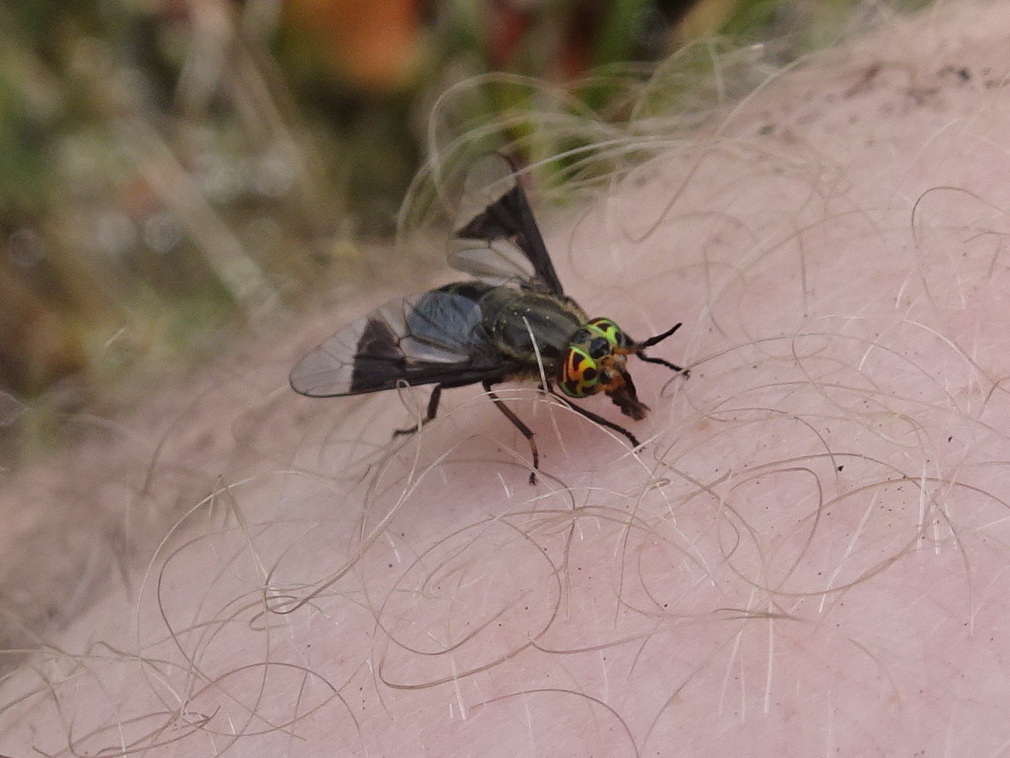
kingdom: Animalia
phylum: Arthropoda
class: Insecta
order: Diptera
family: Tabanidae
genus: Chrysops
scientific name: Chrysops calvus
